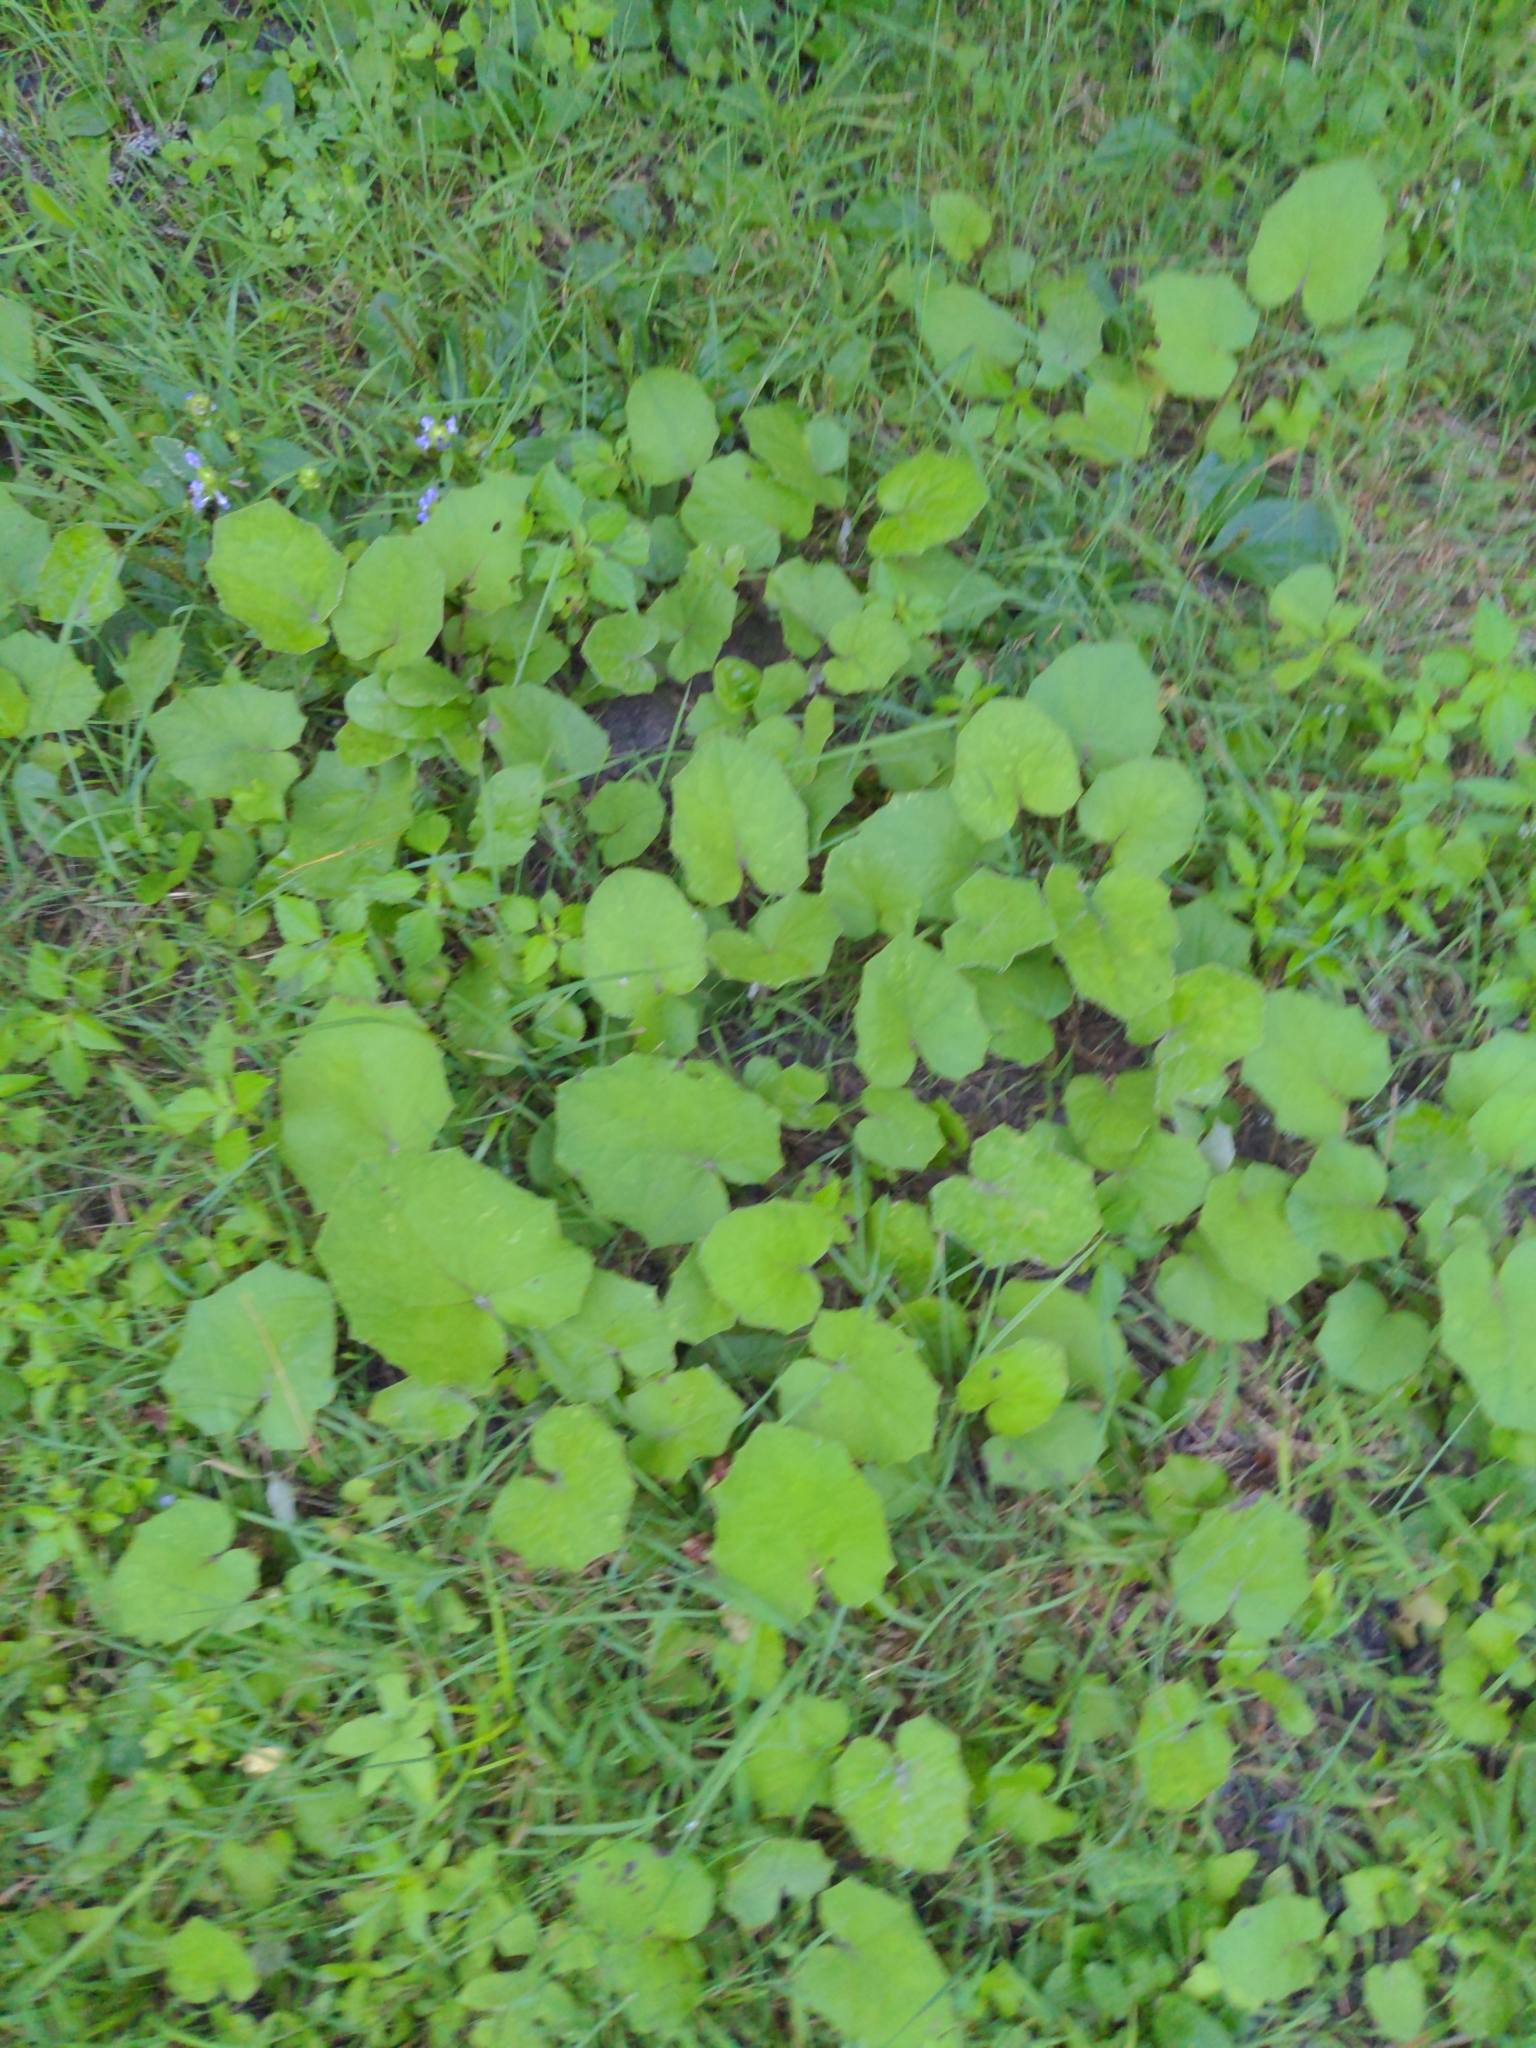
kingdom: Plantae
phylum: Tracheophyta
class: Magnoliopsida
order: Asterales
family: Asteraceae
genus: Tussilago
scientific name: Tussilago farfara
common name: Coltsfoot
